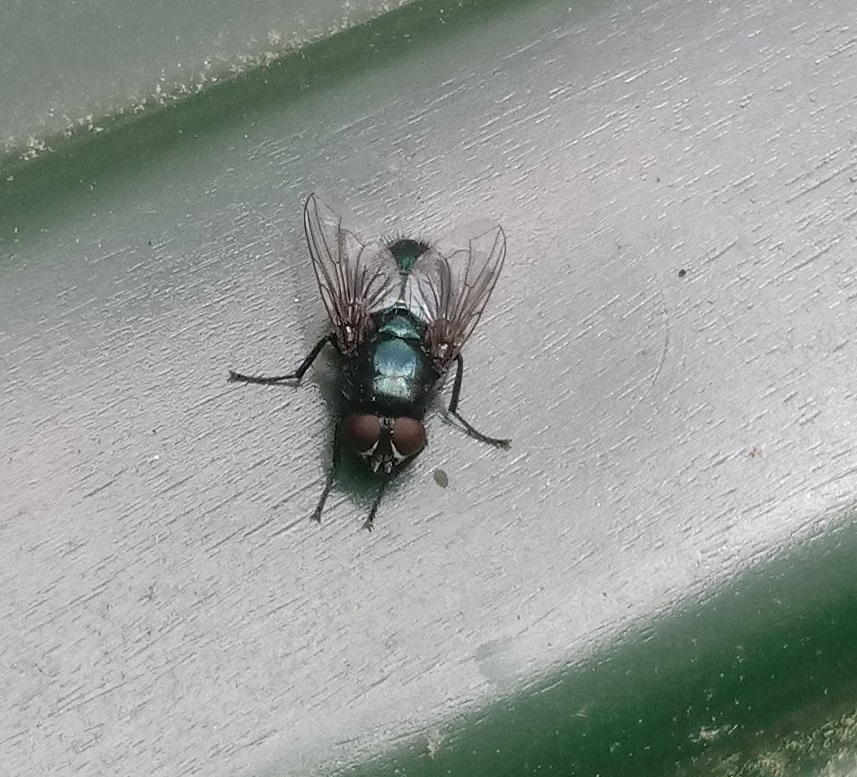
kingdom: Animalia
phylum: Arthropoda
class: Insecta
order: Diptera
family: Calliphoridae
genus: Protophormia
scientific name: Protophormia terraenovae
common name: Blackbottle
